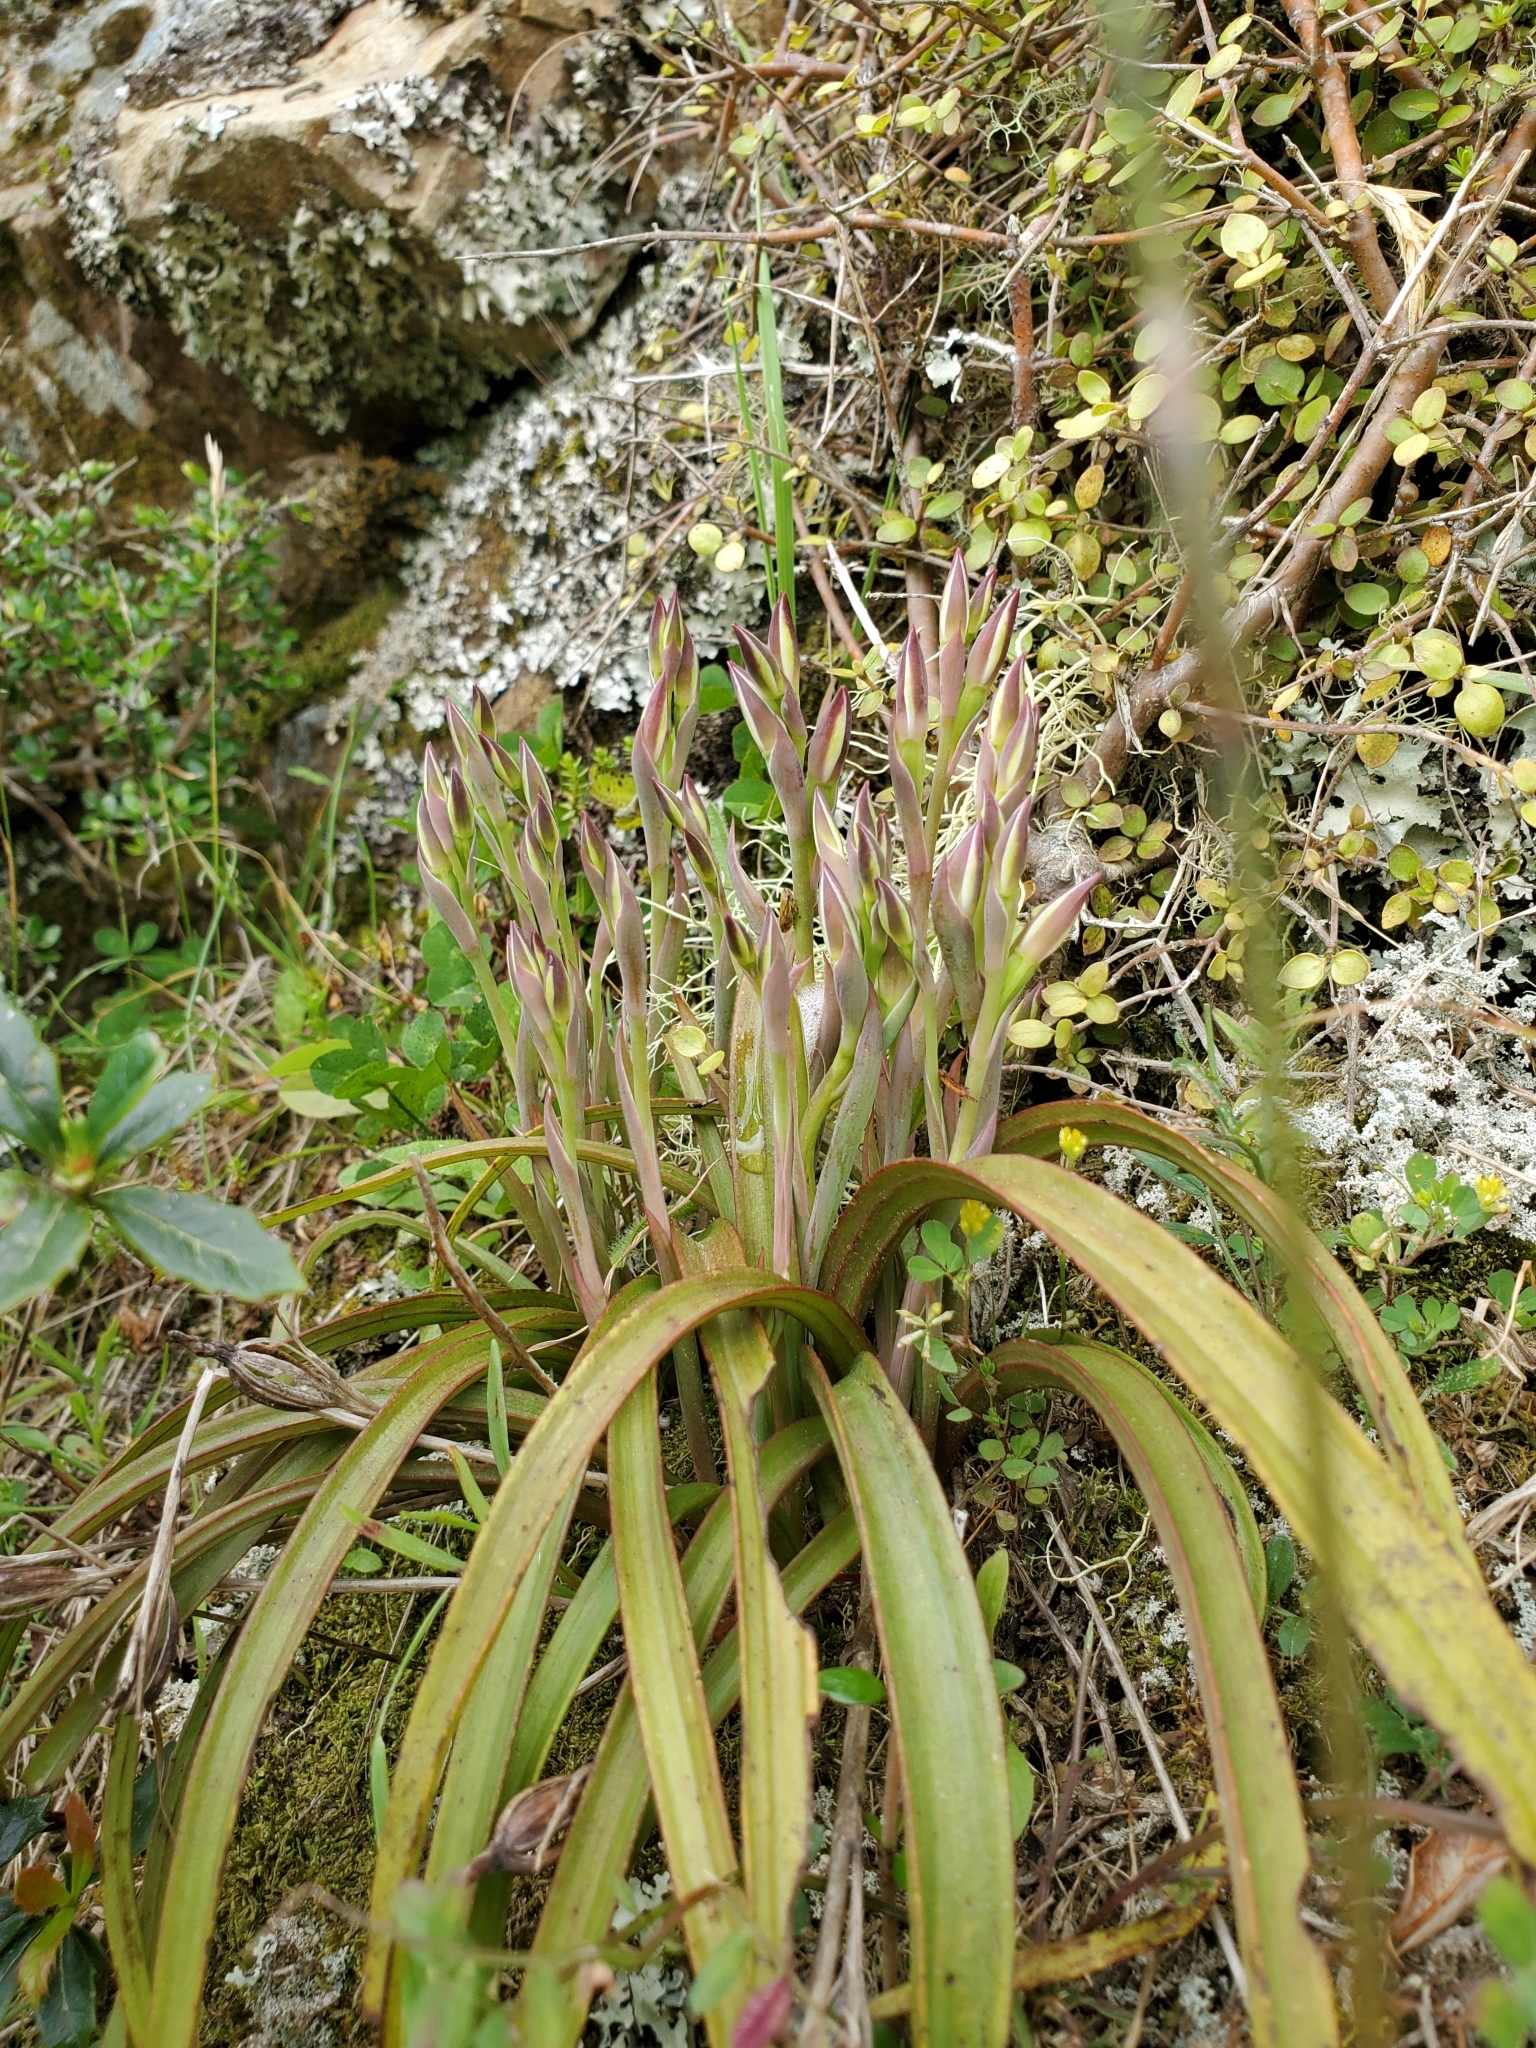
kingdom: Plantae
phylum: Tracheophyta
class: Liliopsida
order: Asparagales
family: Orchidaceae
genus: Thelymitra
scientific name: Thelymitra longifolia
